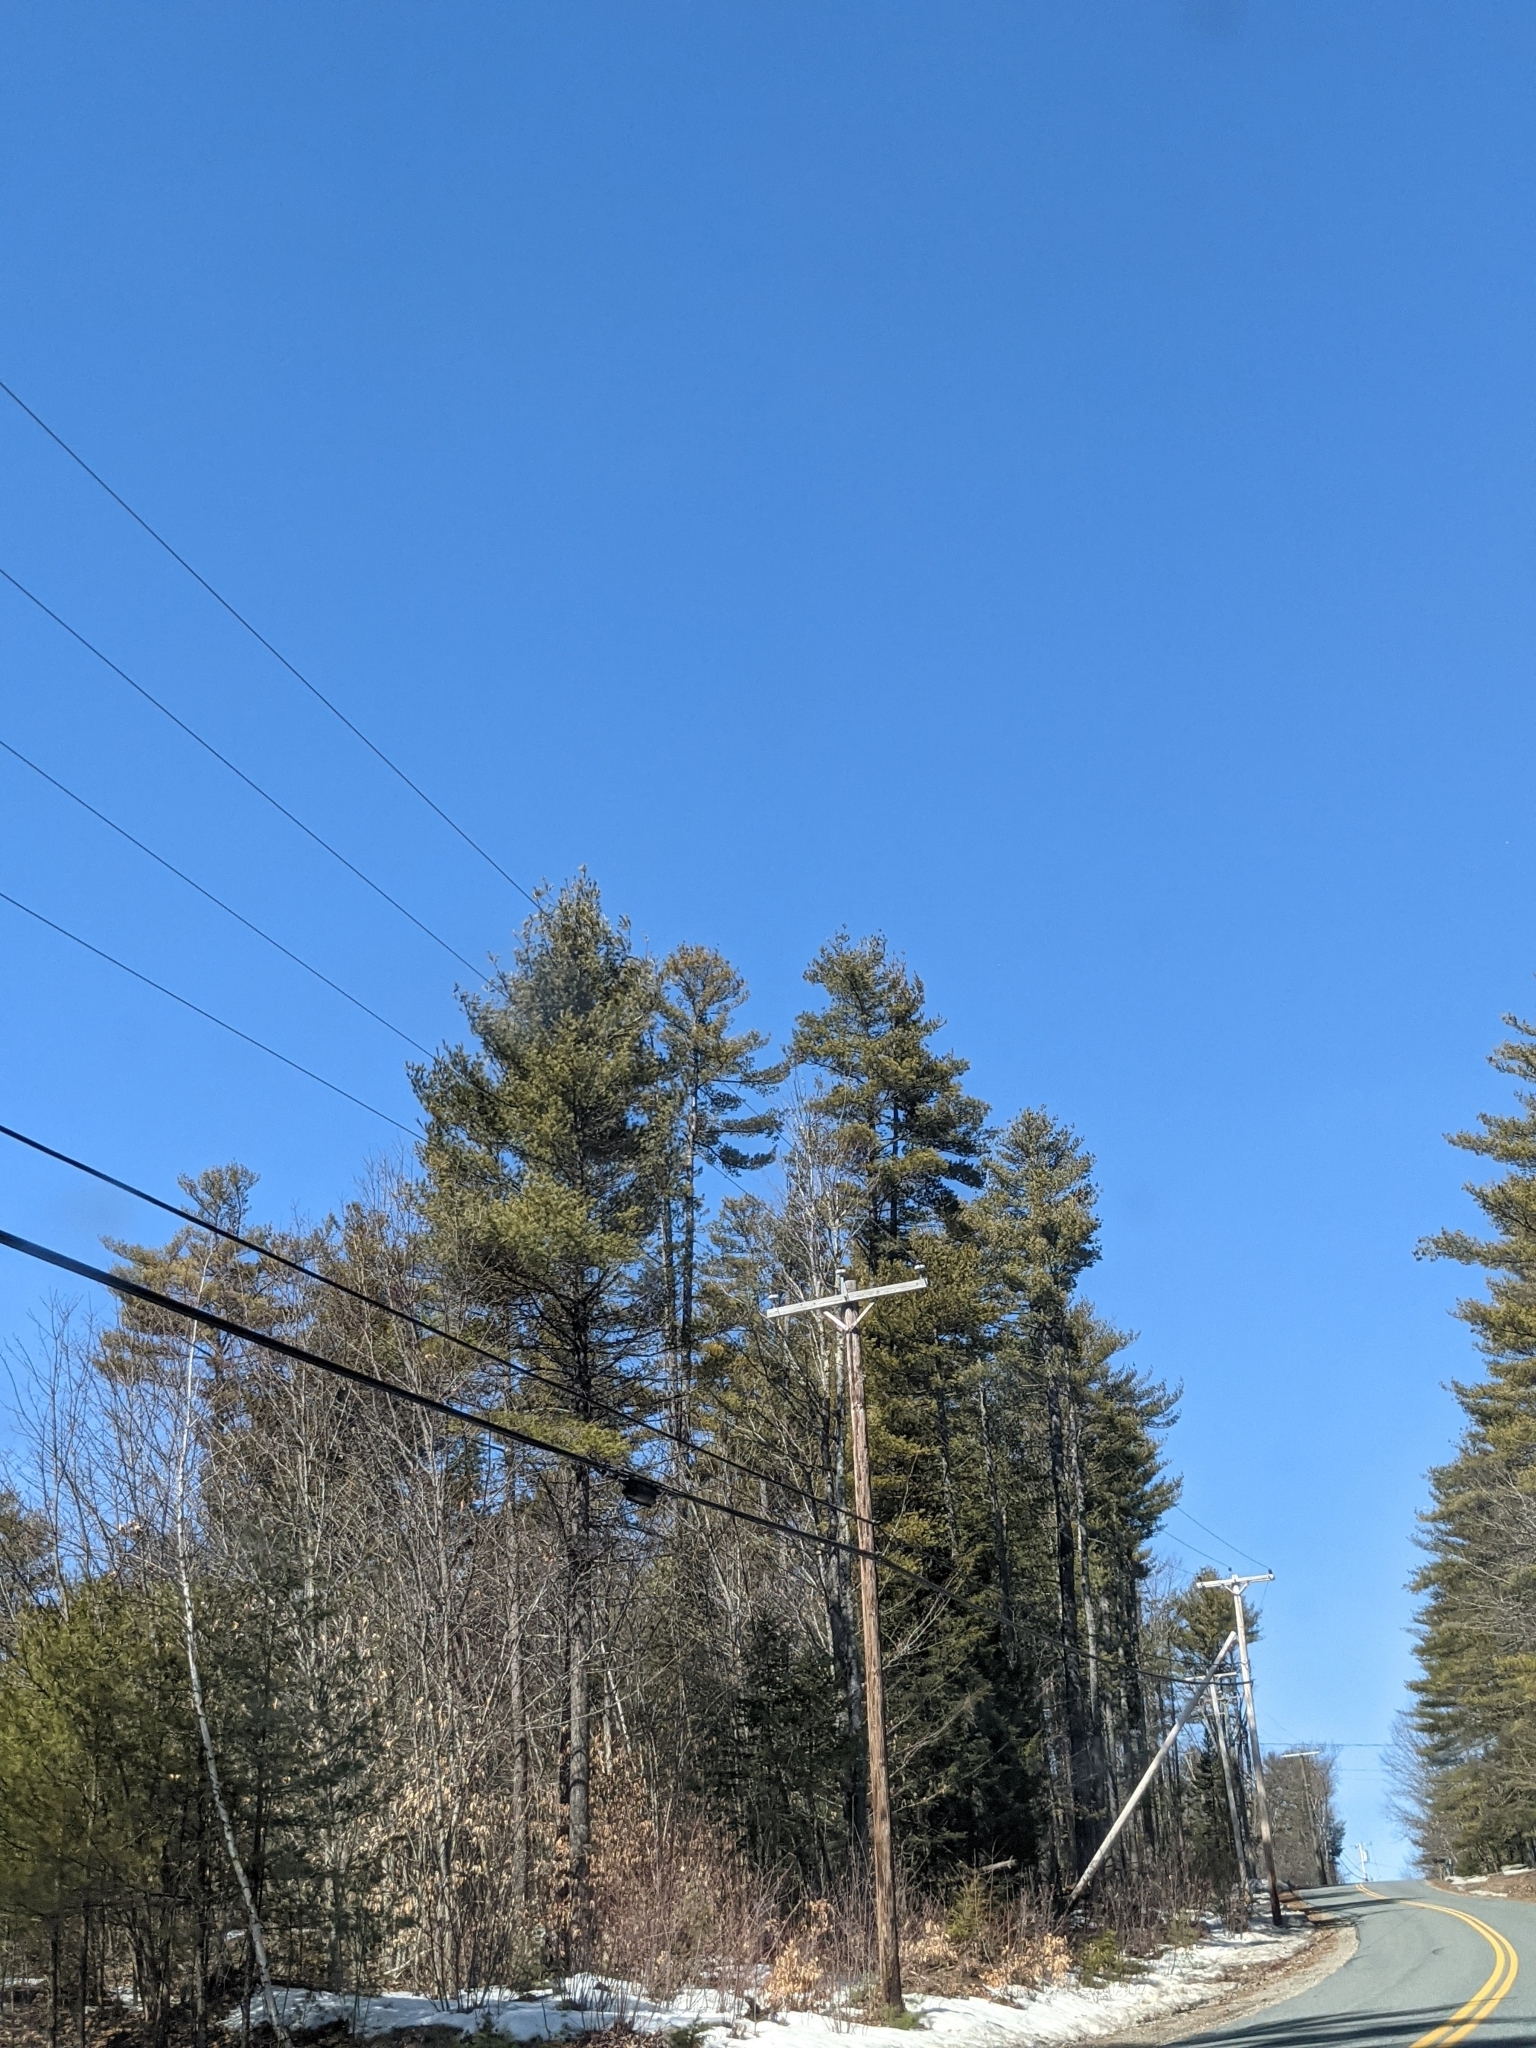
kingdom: Plantae
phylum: Tracheophyta
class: Pinopsida
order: Pinales
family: Pinaceae
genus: Pinus
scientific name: Pinus strobus
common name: Weymouth pine
